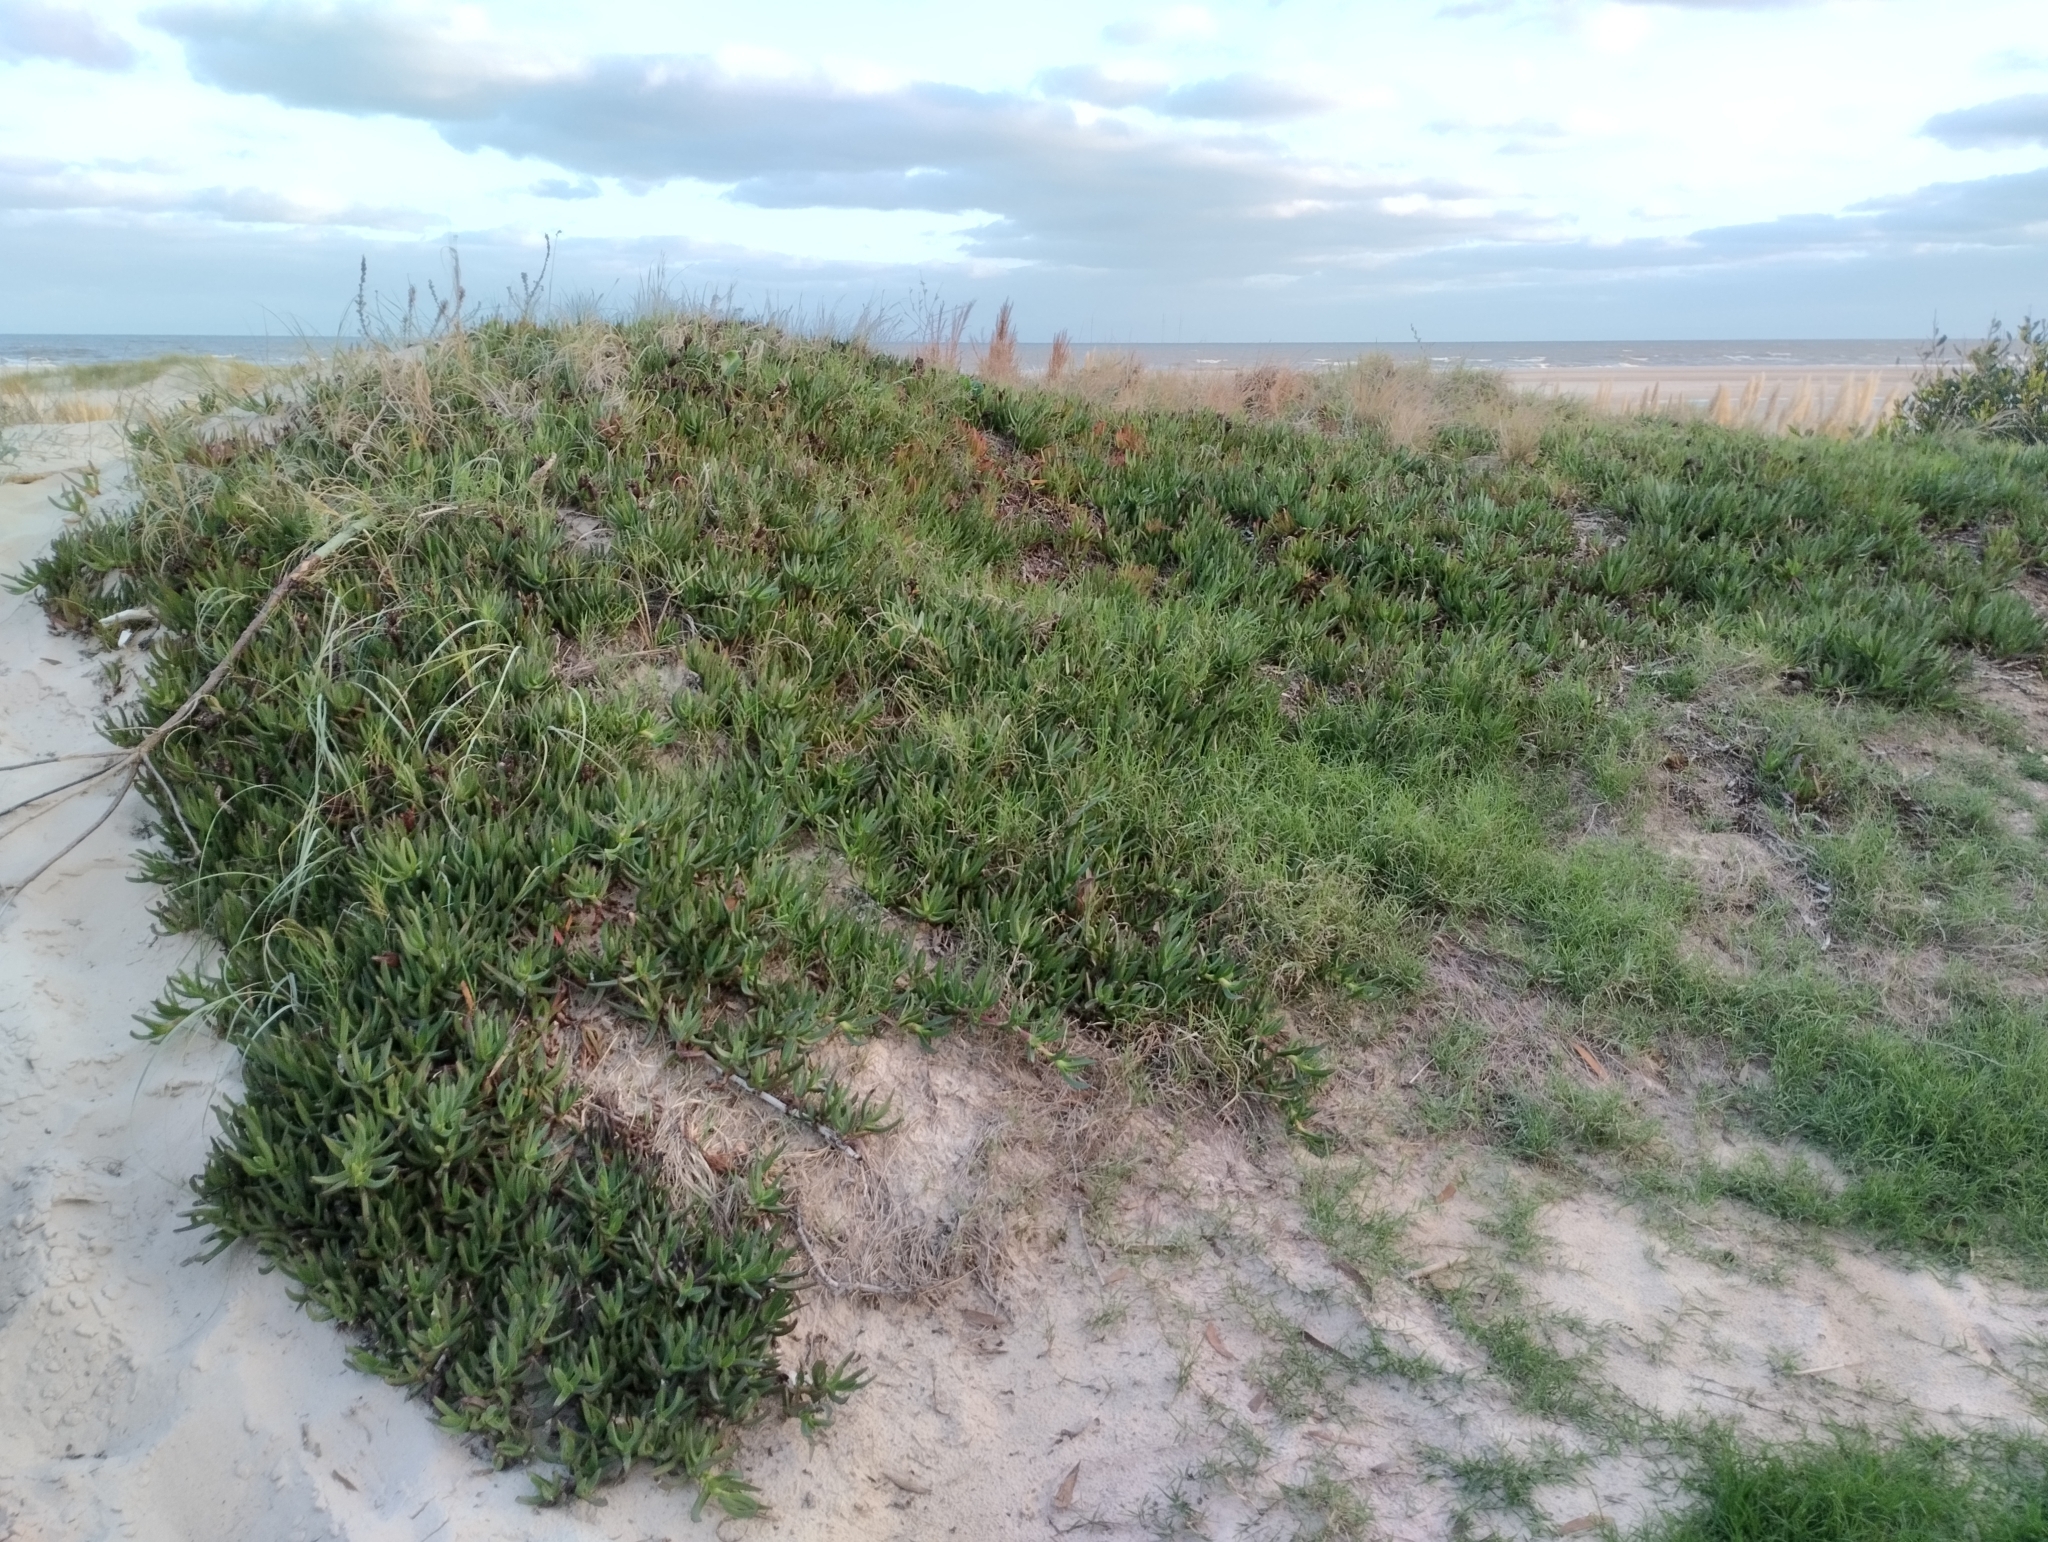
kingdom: Plantae
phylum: Tracheophyta
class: Magnoliopsida
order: Caryophyllales
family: Aizoaceae
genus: Carpobrotus
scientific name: Carpobrotus edulis
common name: Hottentot-fig
